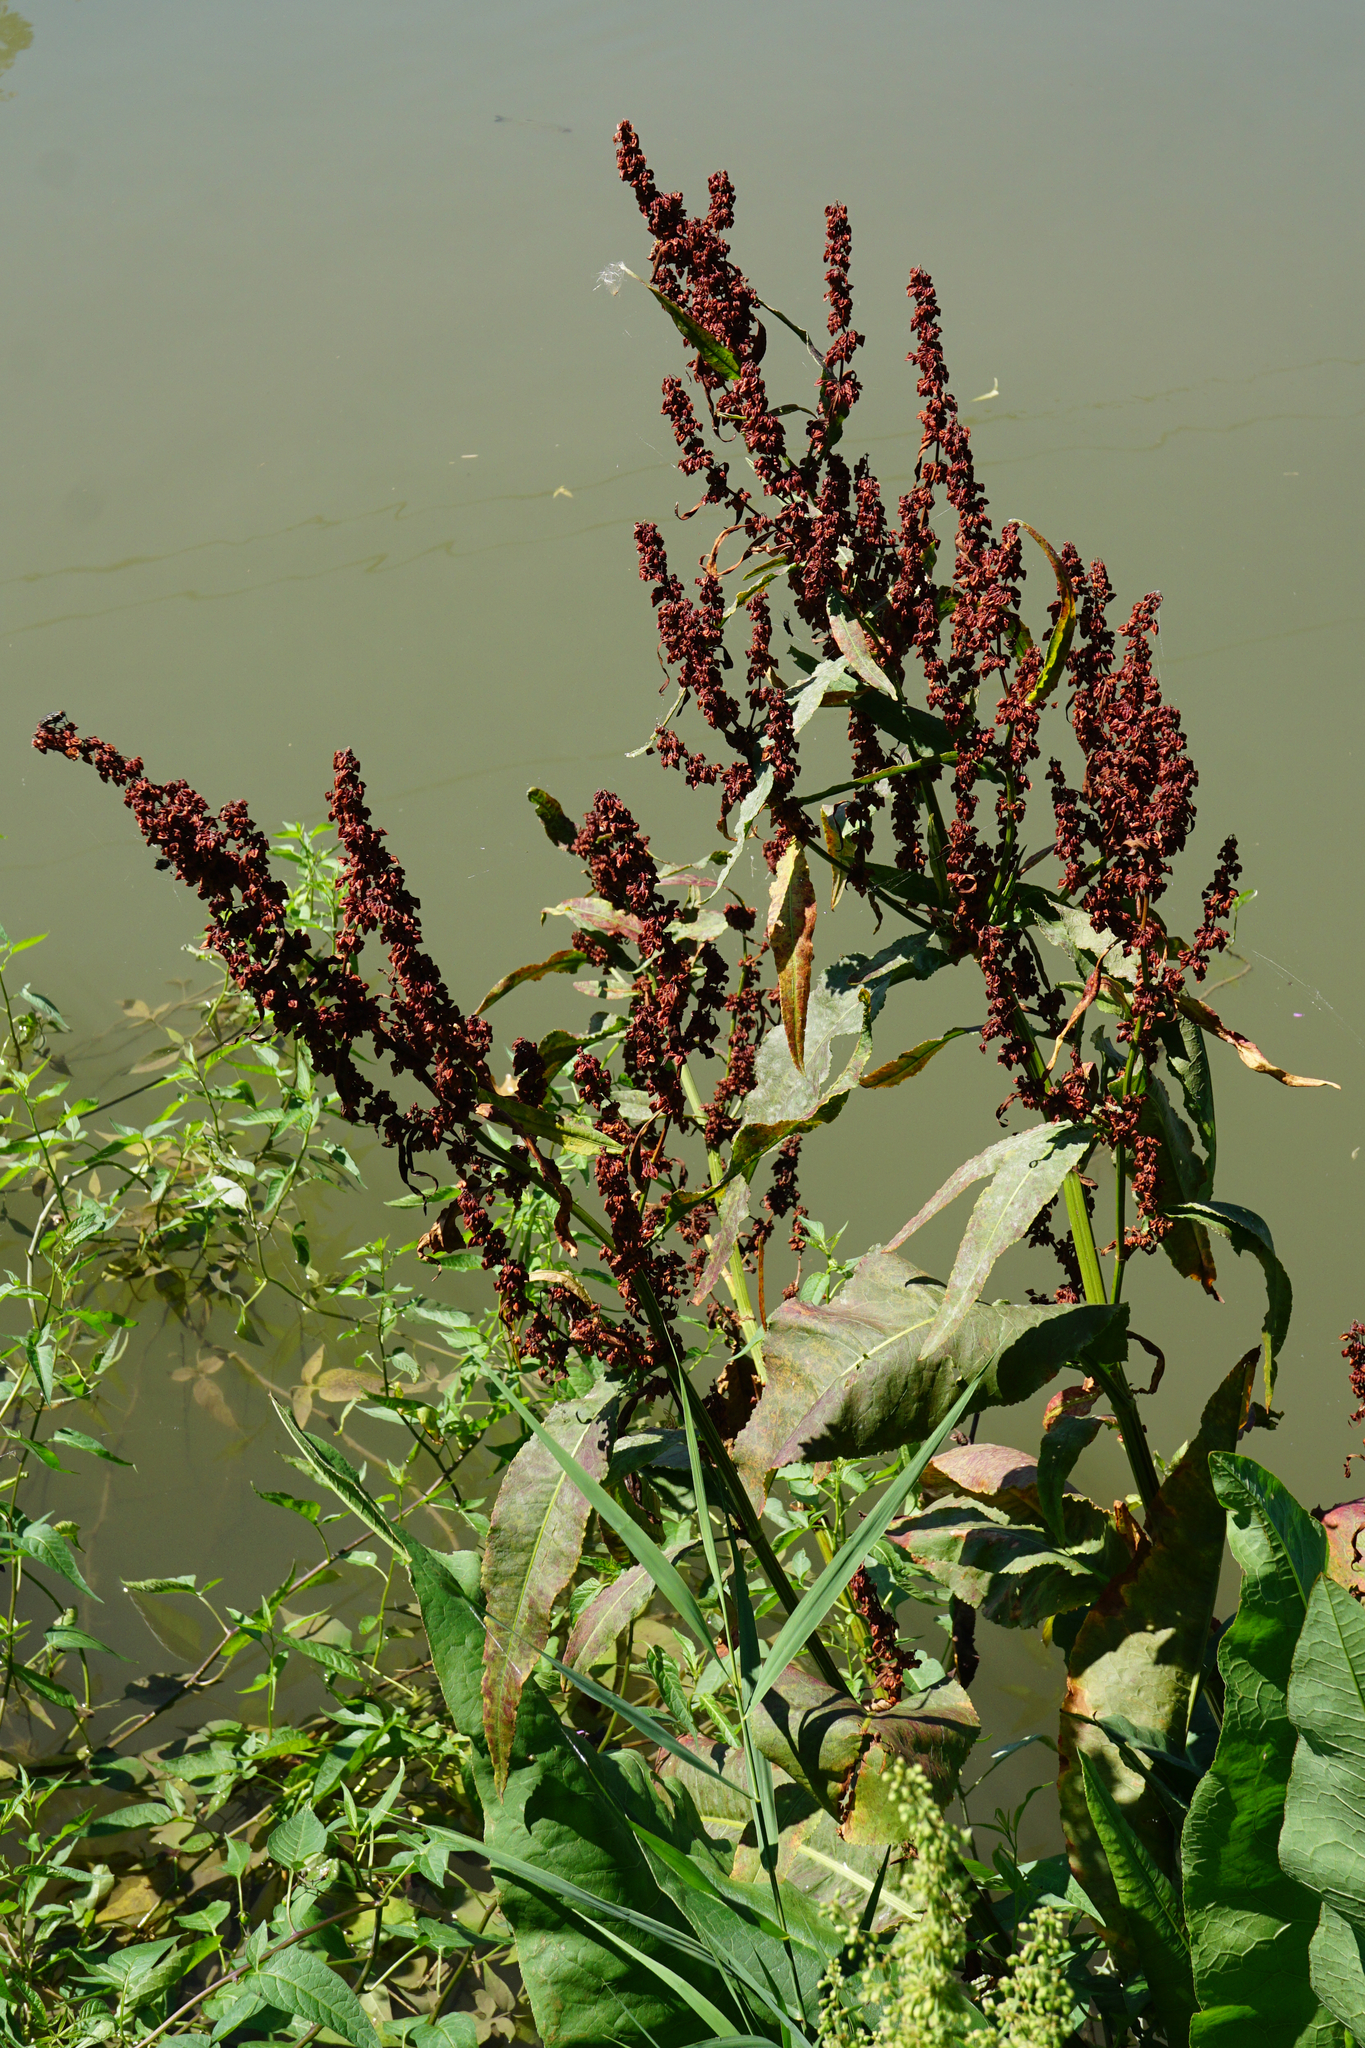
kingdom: Plantae
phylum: Tracheophyta
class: Magnoliopsida
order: Caryophyllales
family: Polygonaceae
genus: Rumex
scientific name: Rumex hydrolapathum
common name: Water dock
